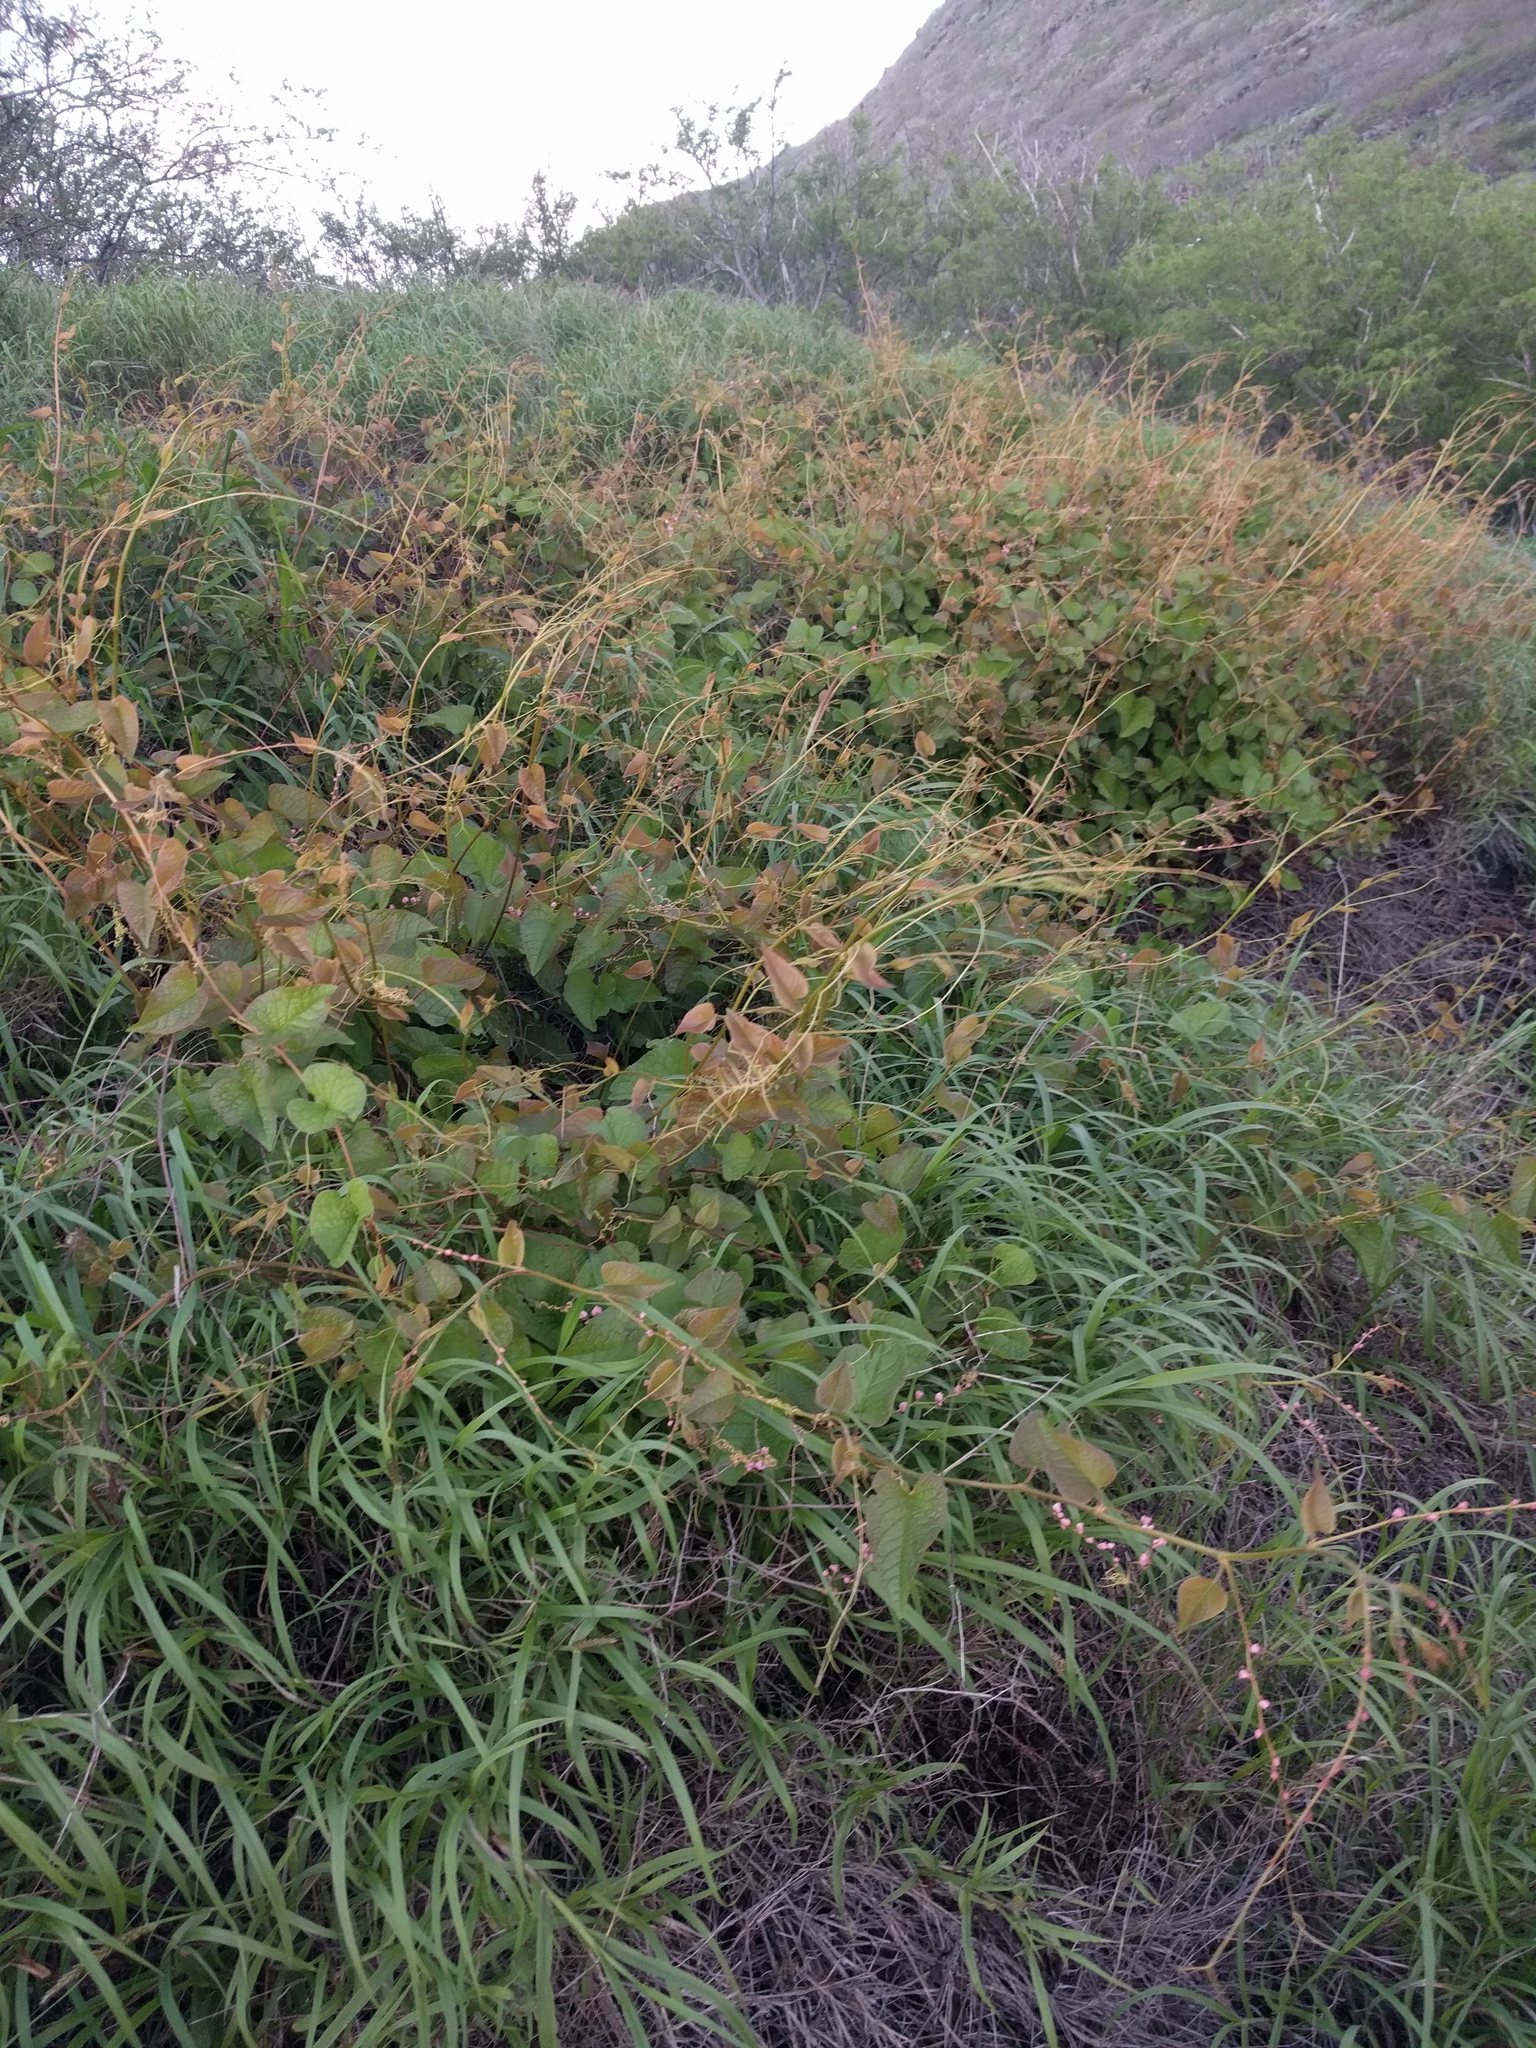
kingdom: Plantae
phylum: Tracheophyta
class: Magnoliopsida
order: Caryophyllales
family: Polygonaceae
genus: Antigonon
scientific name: Antigonon leptopus
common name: Coral vine
